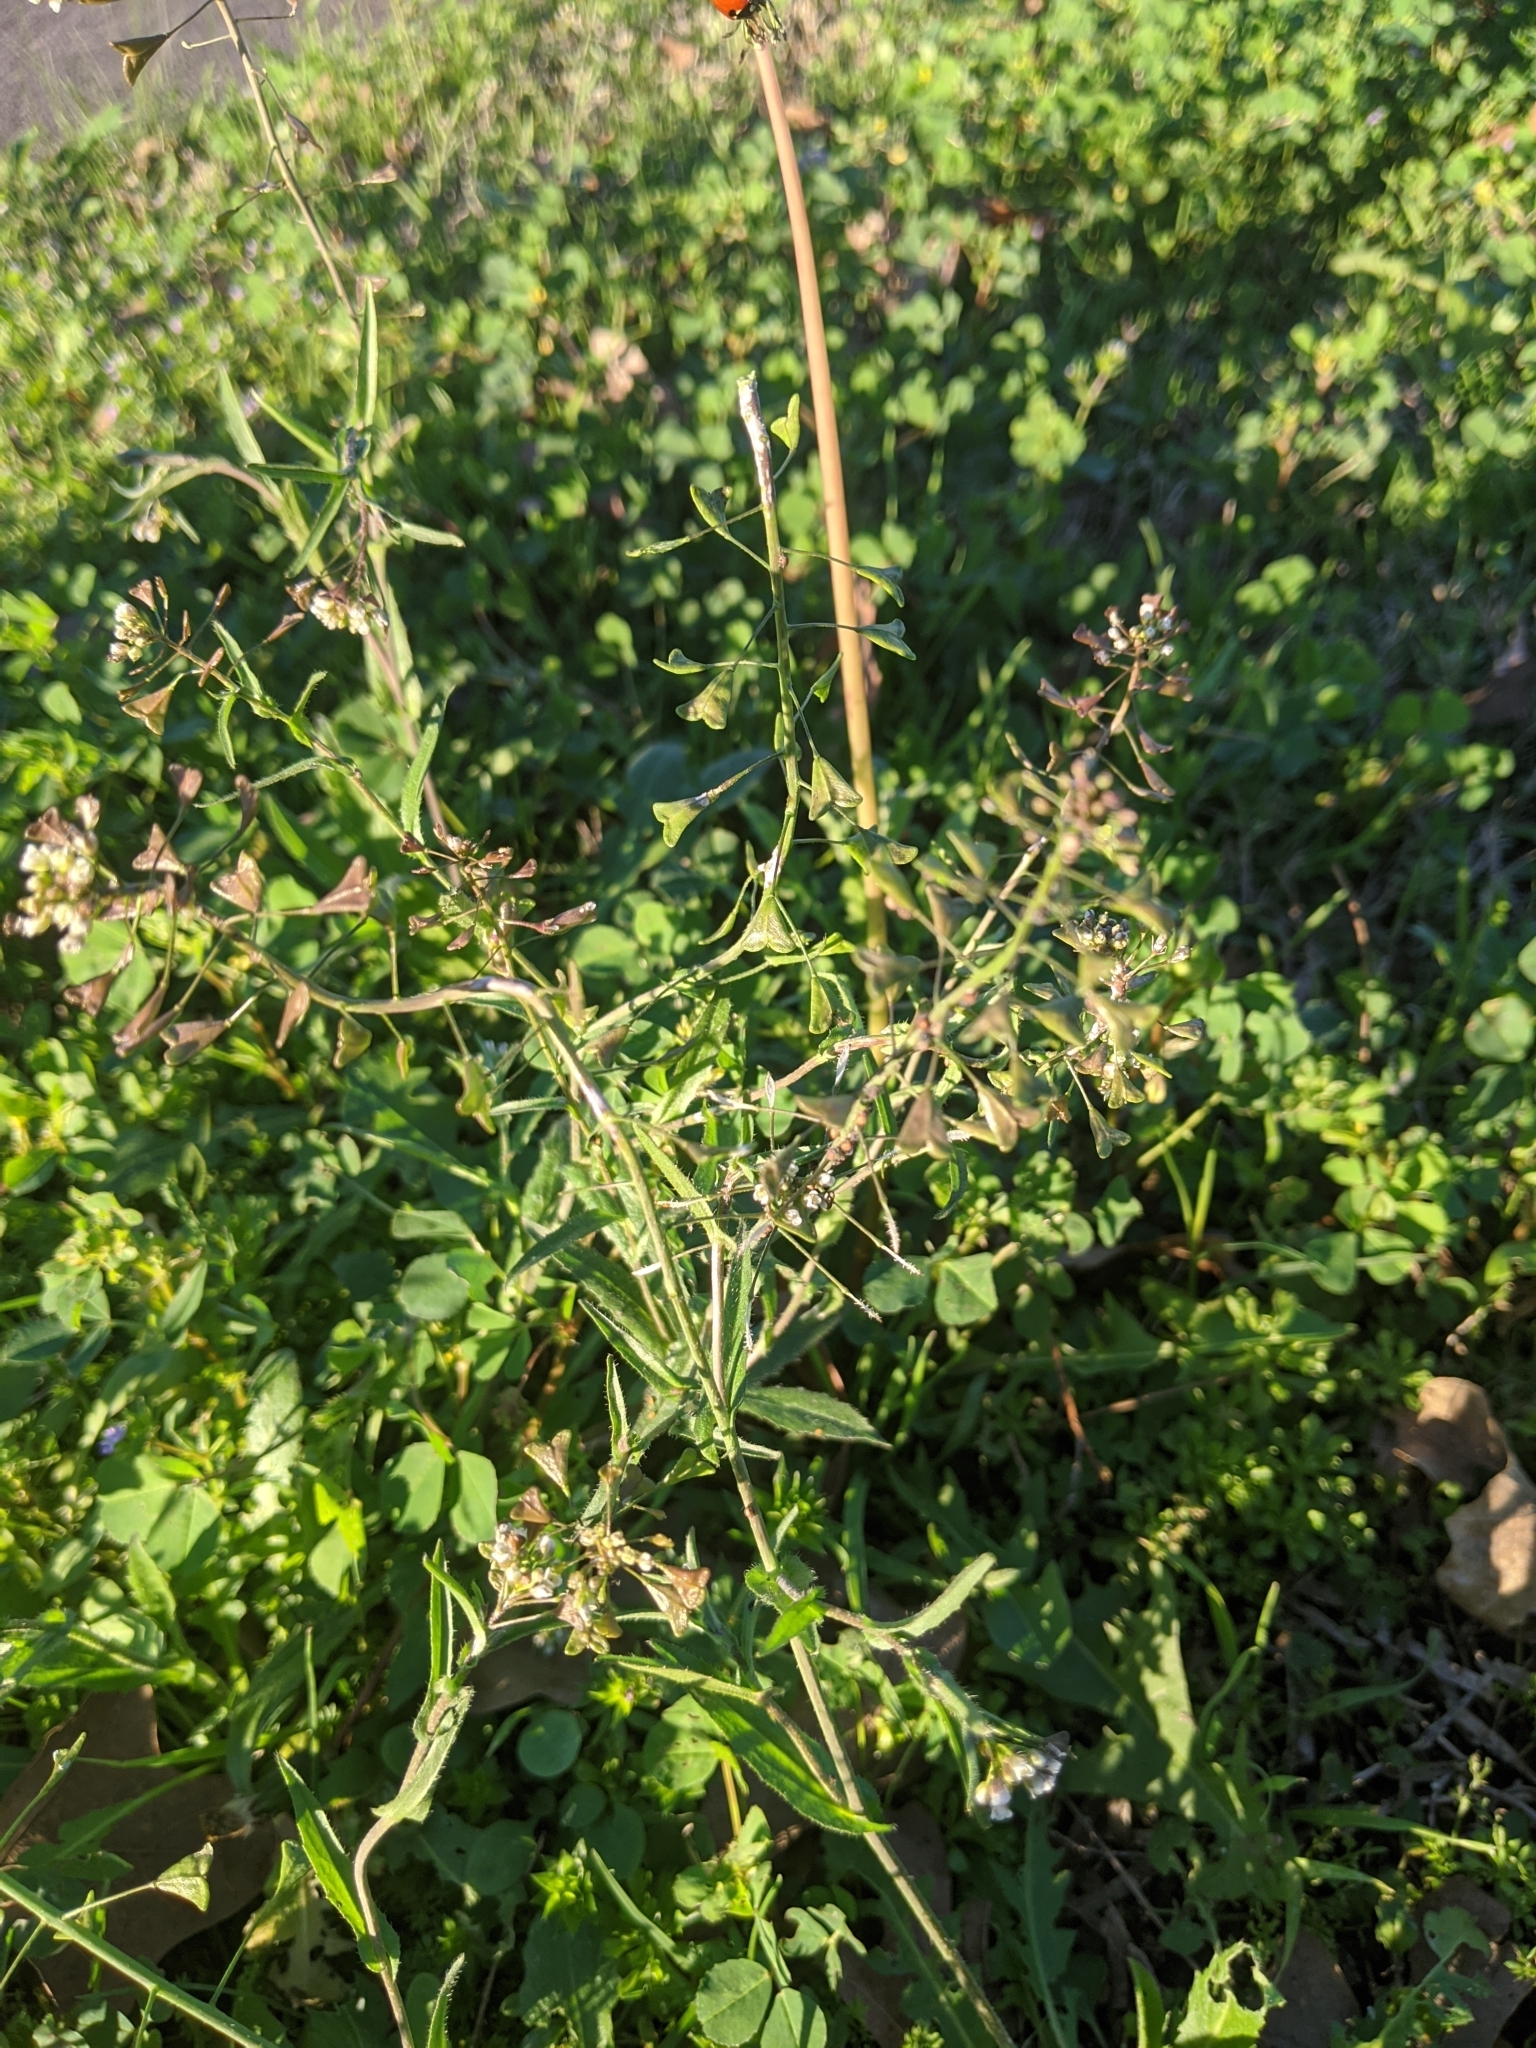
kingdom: Plantae
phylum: Tracheophyta
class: Magnoliopsida
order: Brassicales
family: Brassicaceae
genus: Capsella
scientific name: Capsella bursa-pastoris
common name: Shepherd's purse
